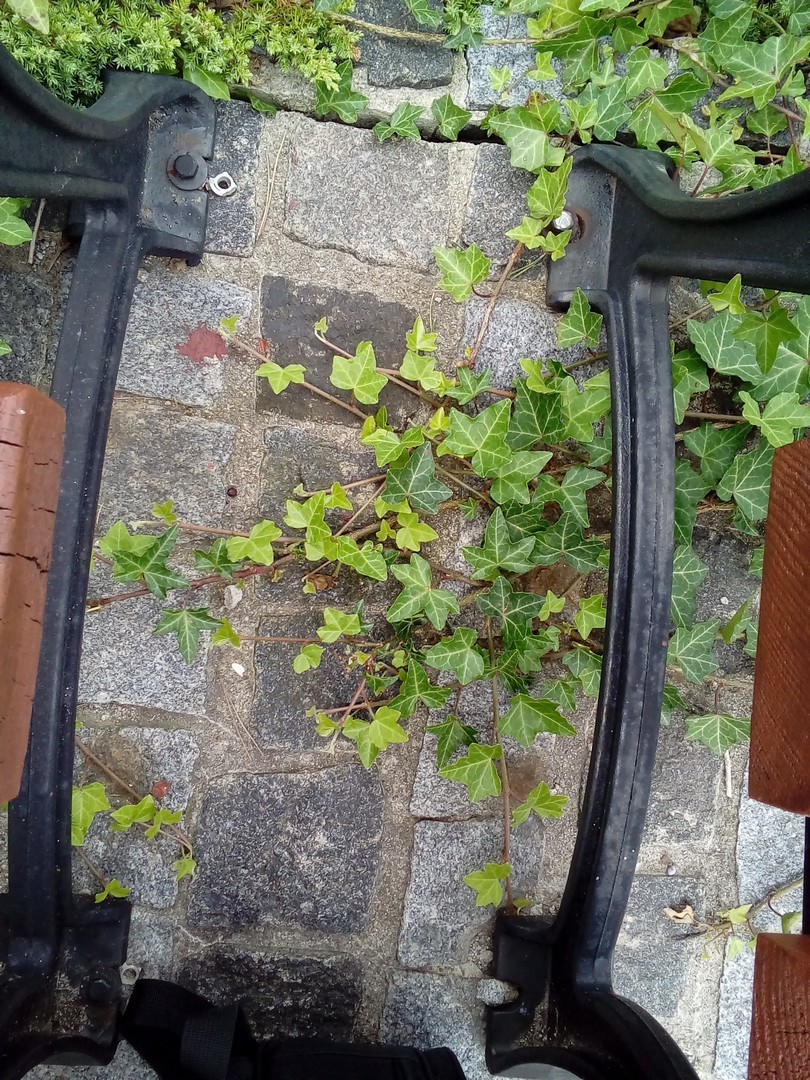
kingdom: Plantae
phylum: Tracheophyta
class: Magnoliopsida
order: Apiales
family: Araliaceae
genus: Hedera
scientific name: Hedera helix
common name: Ivy
